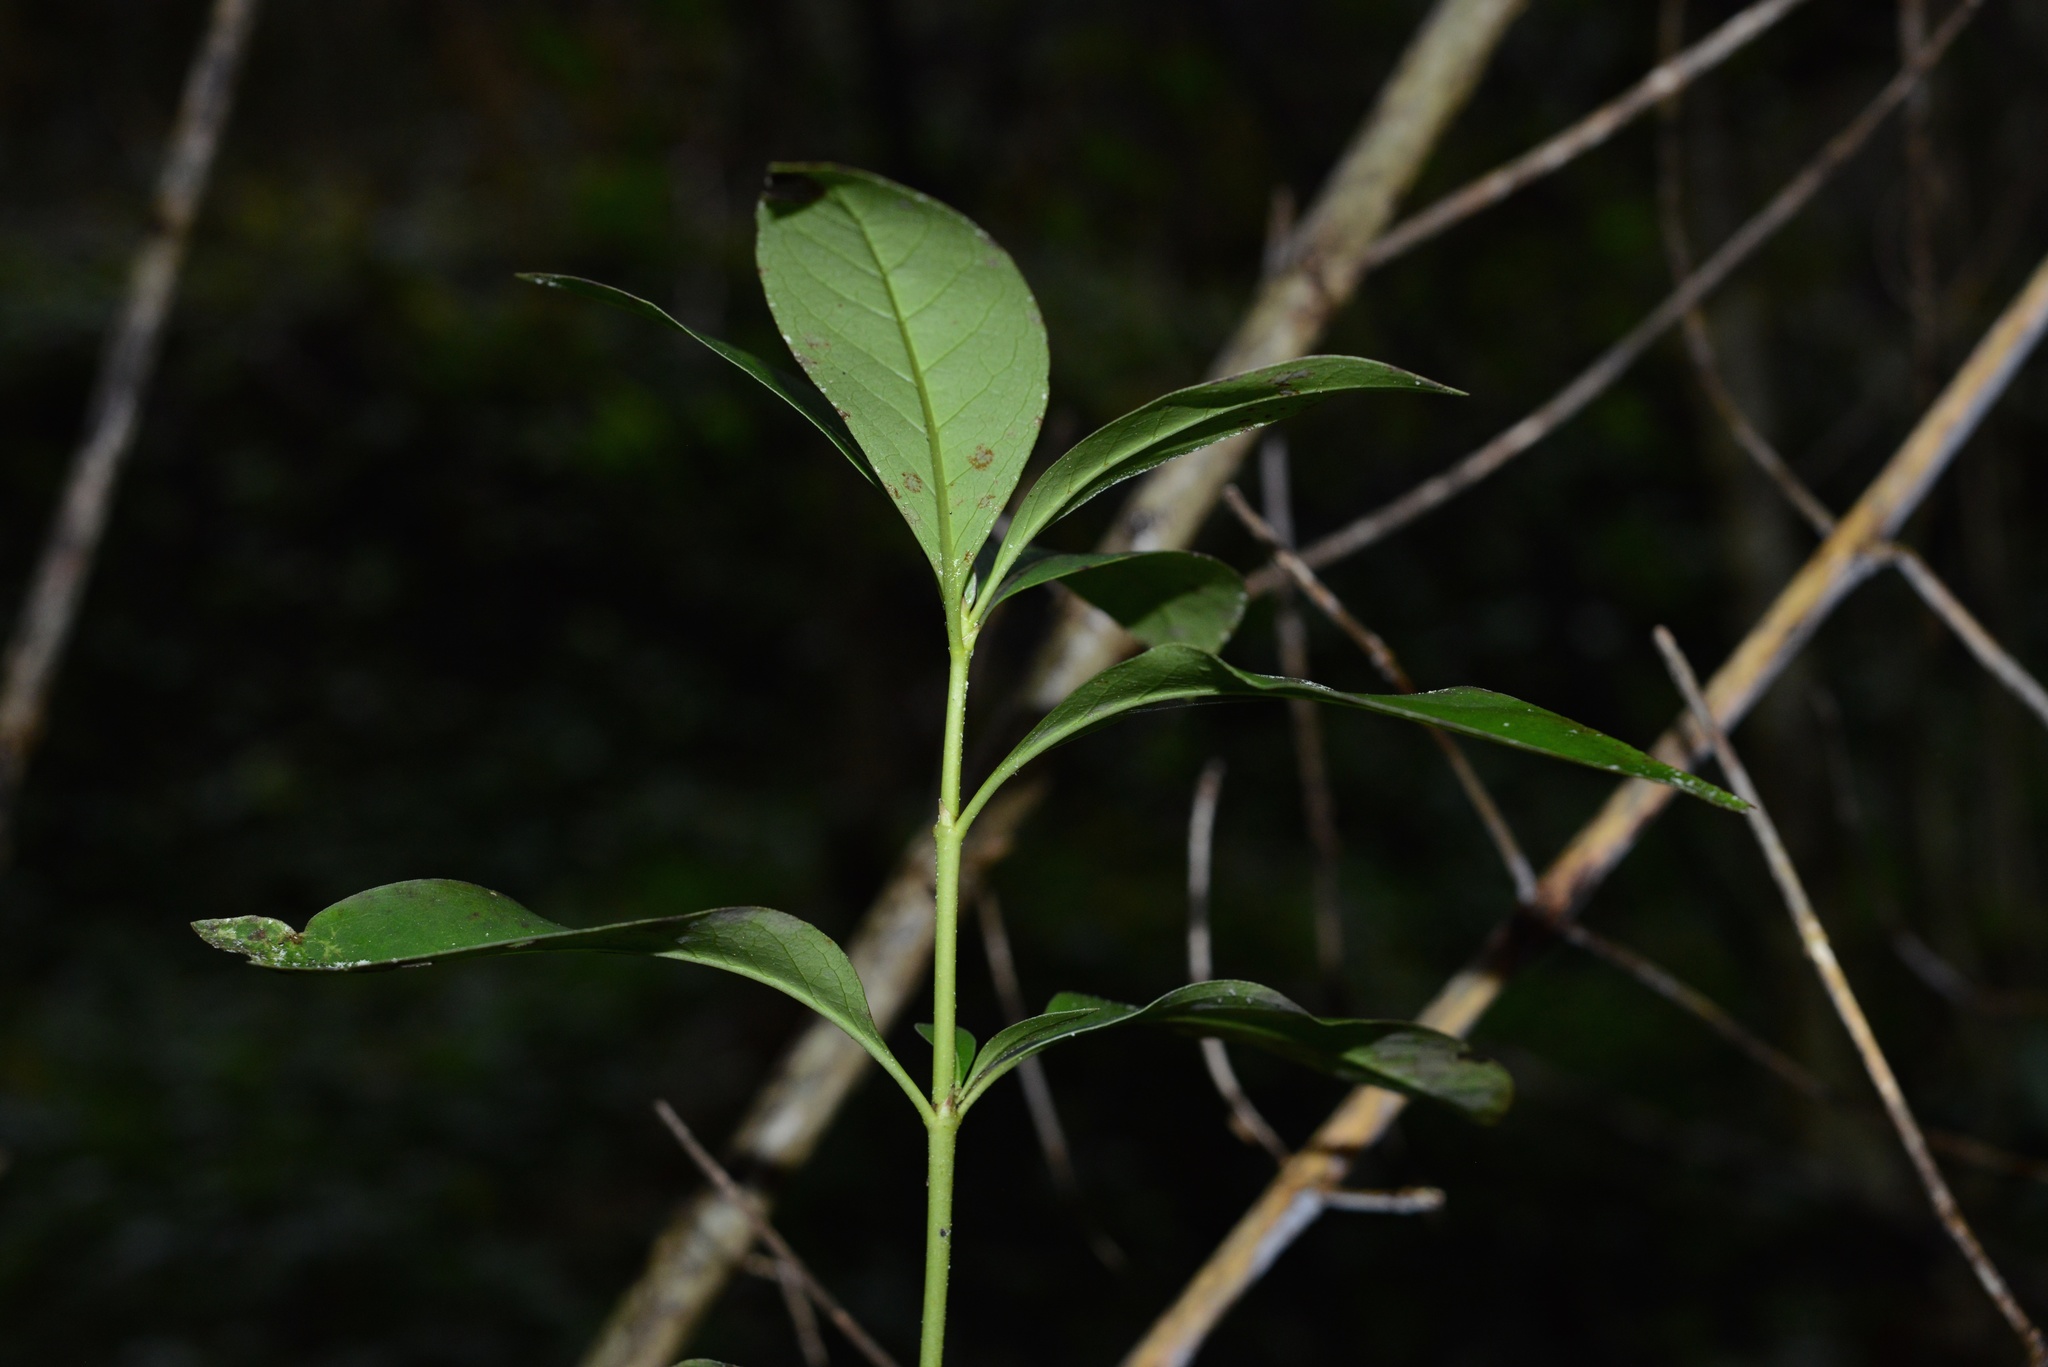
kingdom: Plantae
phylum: Tracheophyta
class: Magnoliopsida
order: Gentianales
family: Rubiaceae
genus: Coprosma
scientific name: Coprosma robusta
